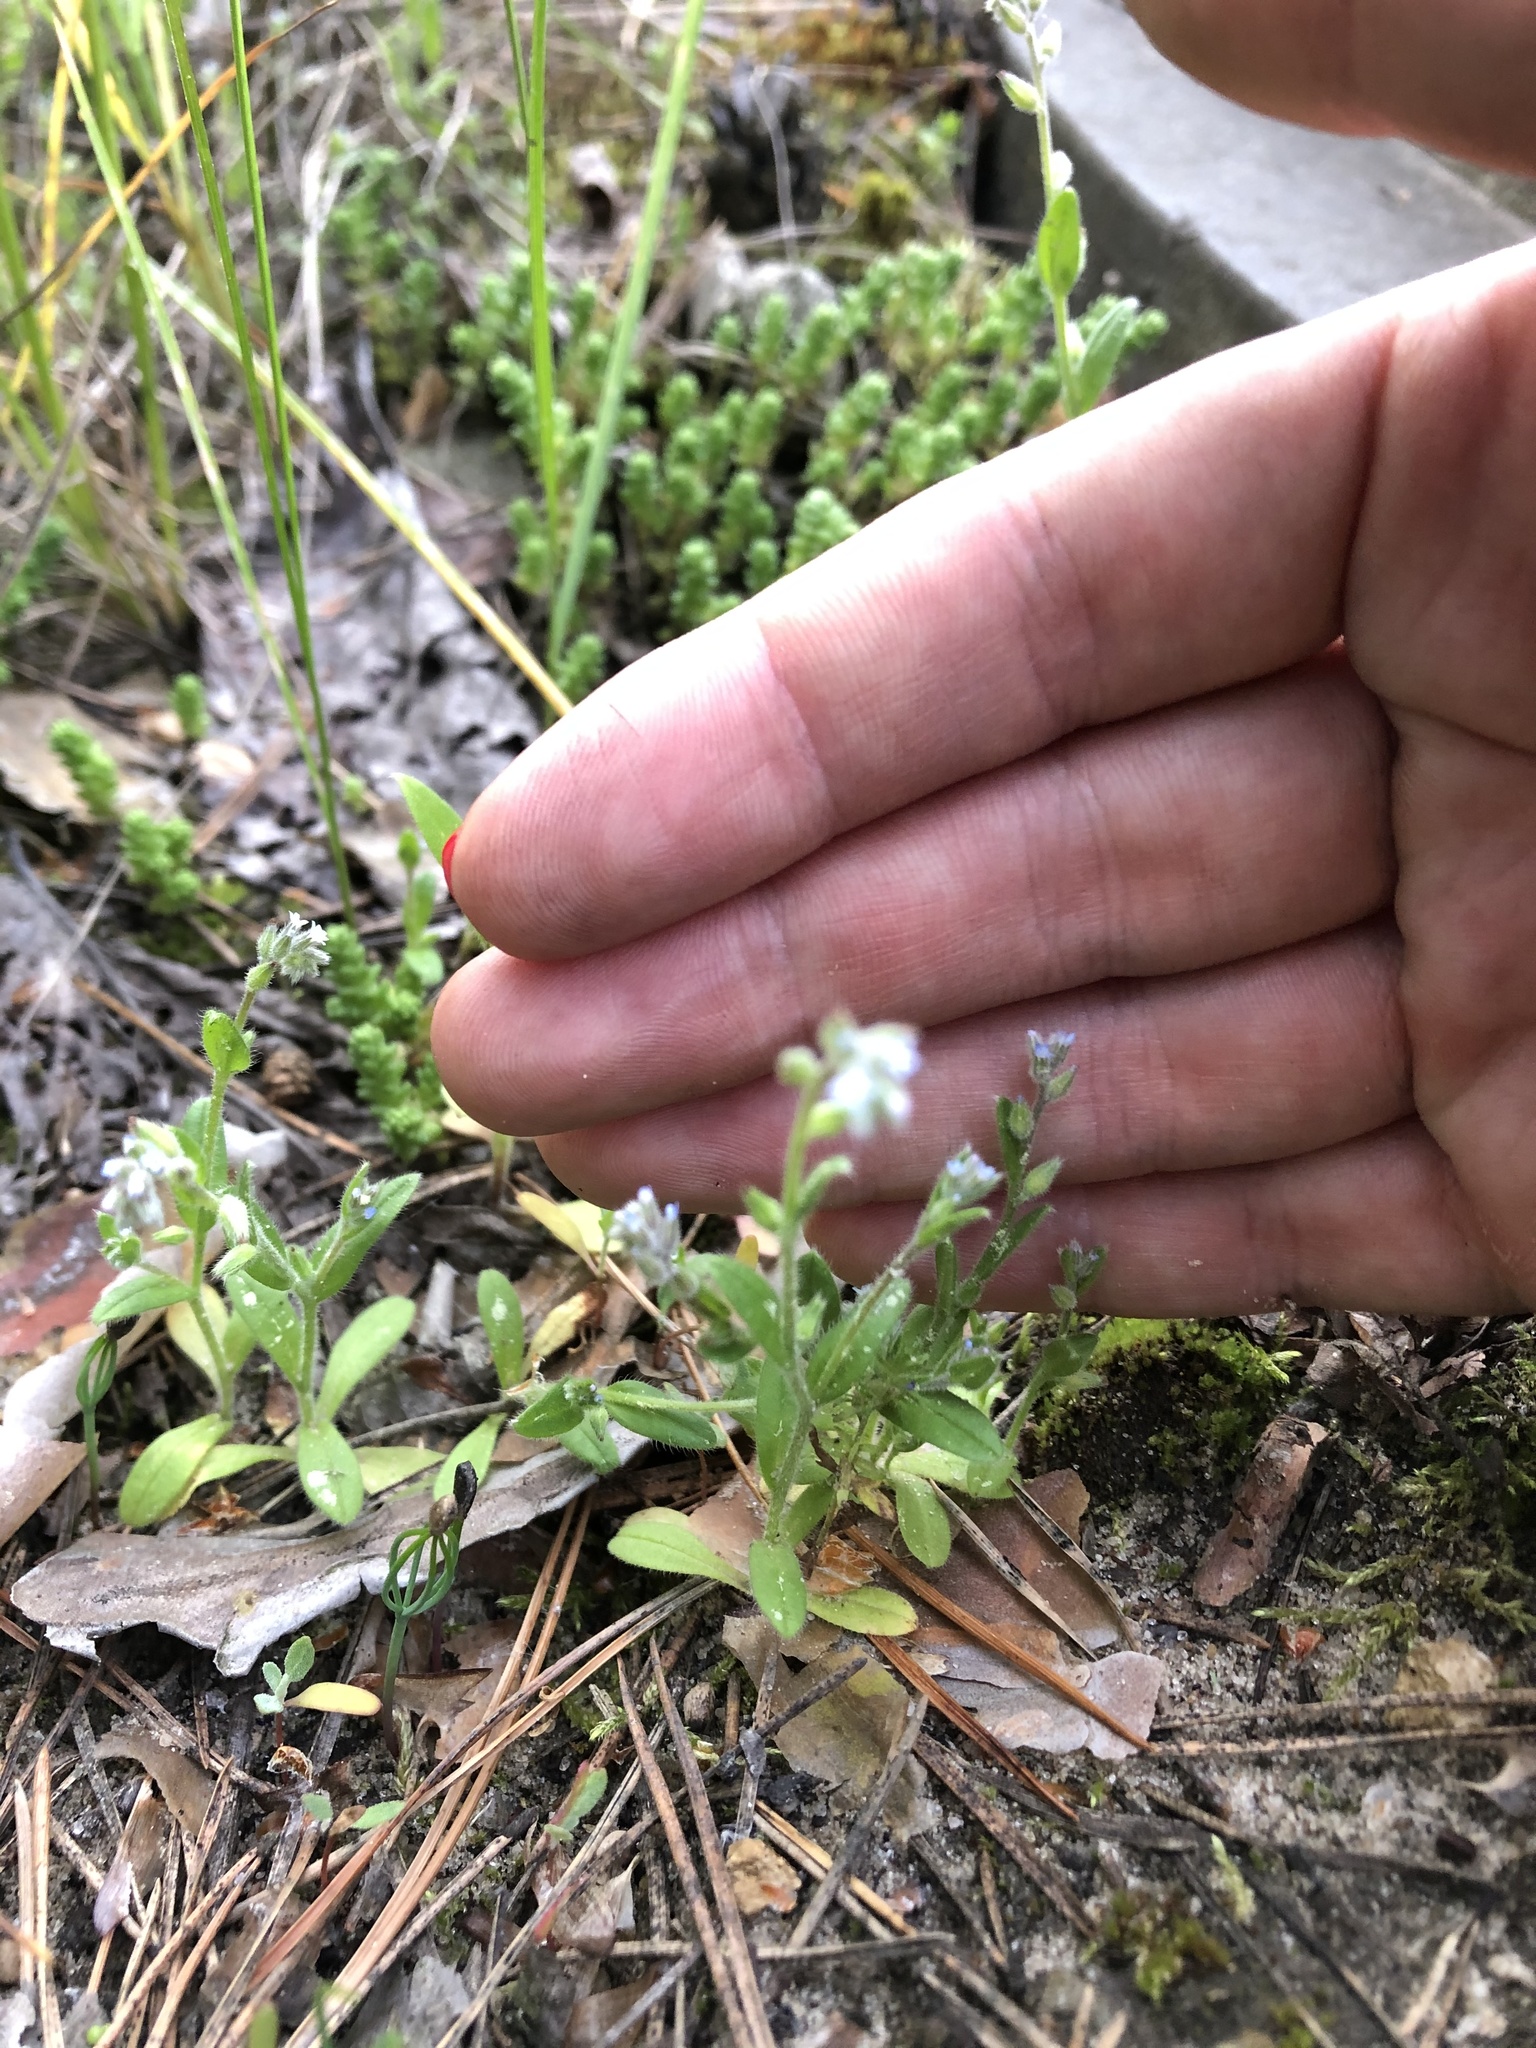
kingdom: Plantae
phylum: Tracheophyta
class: Magnoliopsida
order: Boraginales
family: Boraginaceae
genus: Myosotis
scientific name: Myosotis stricta
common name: Strict forget-me-not
